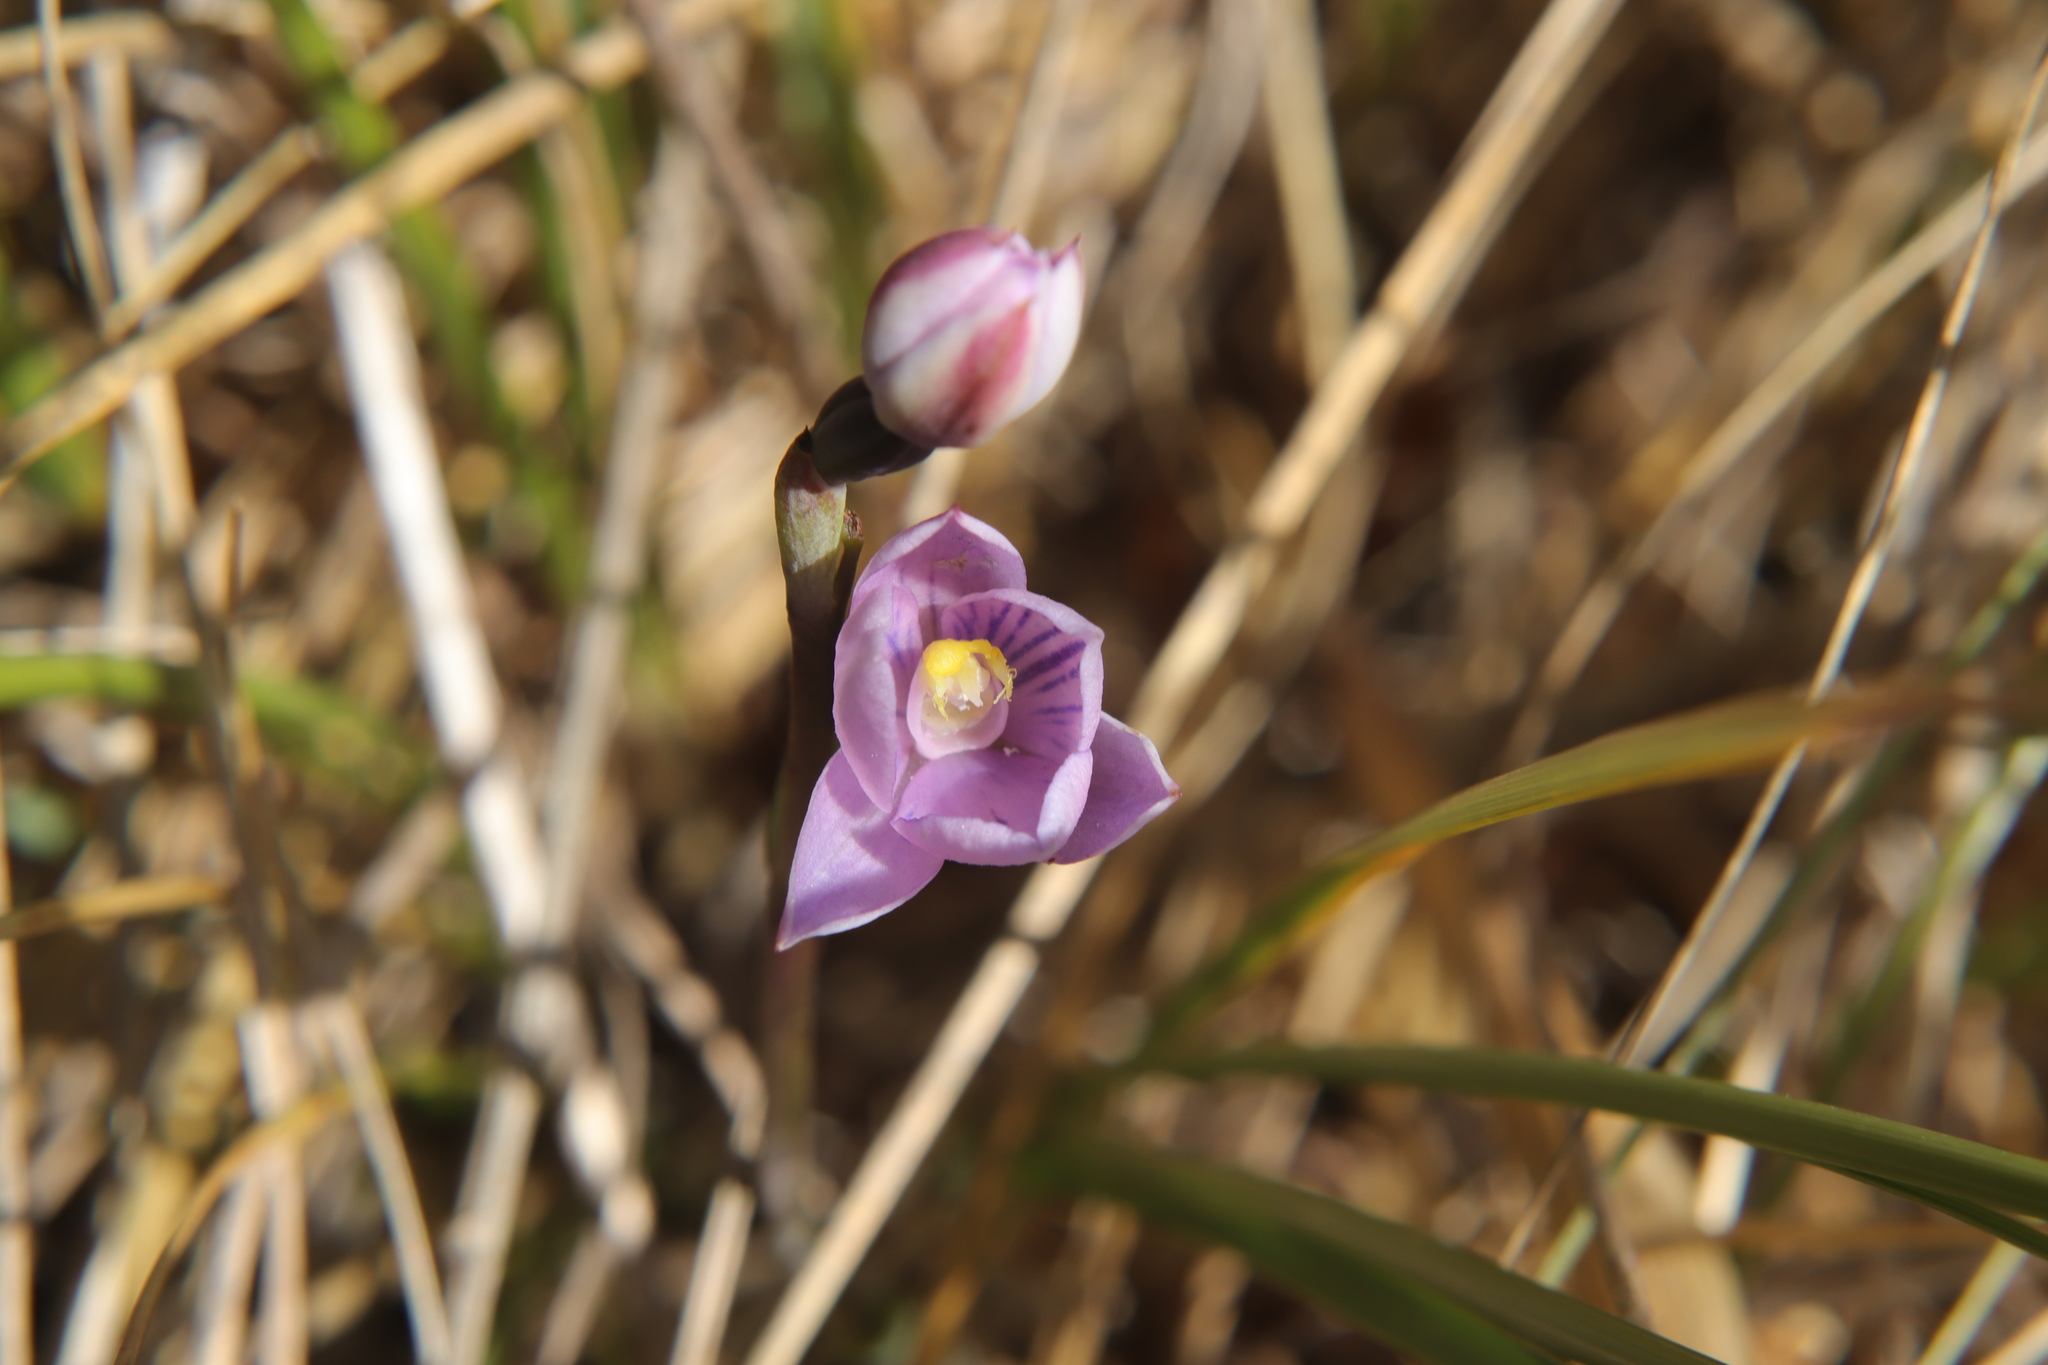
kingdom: Plantae
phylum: Tracheophyta
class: Liliopsida
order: Asparagales
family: Orchidaceae
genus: Thelymitra
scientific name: Thelymitra pulchella
